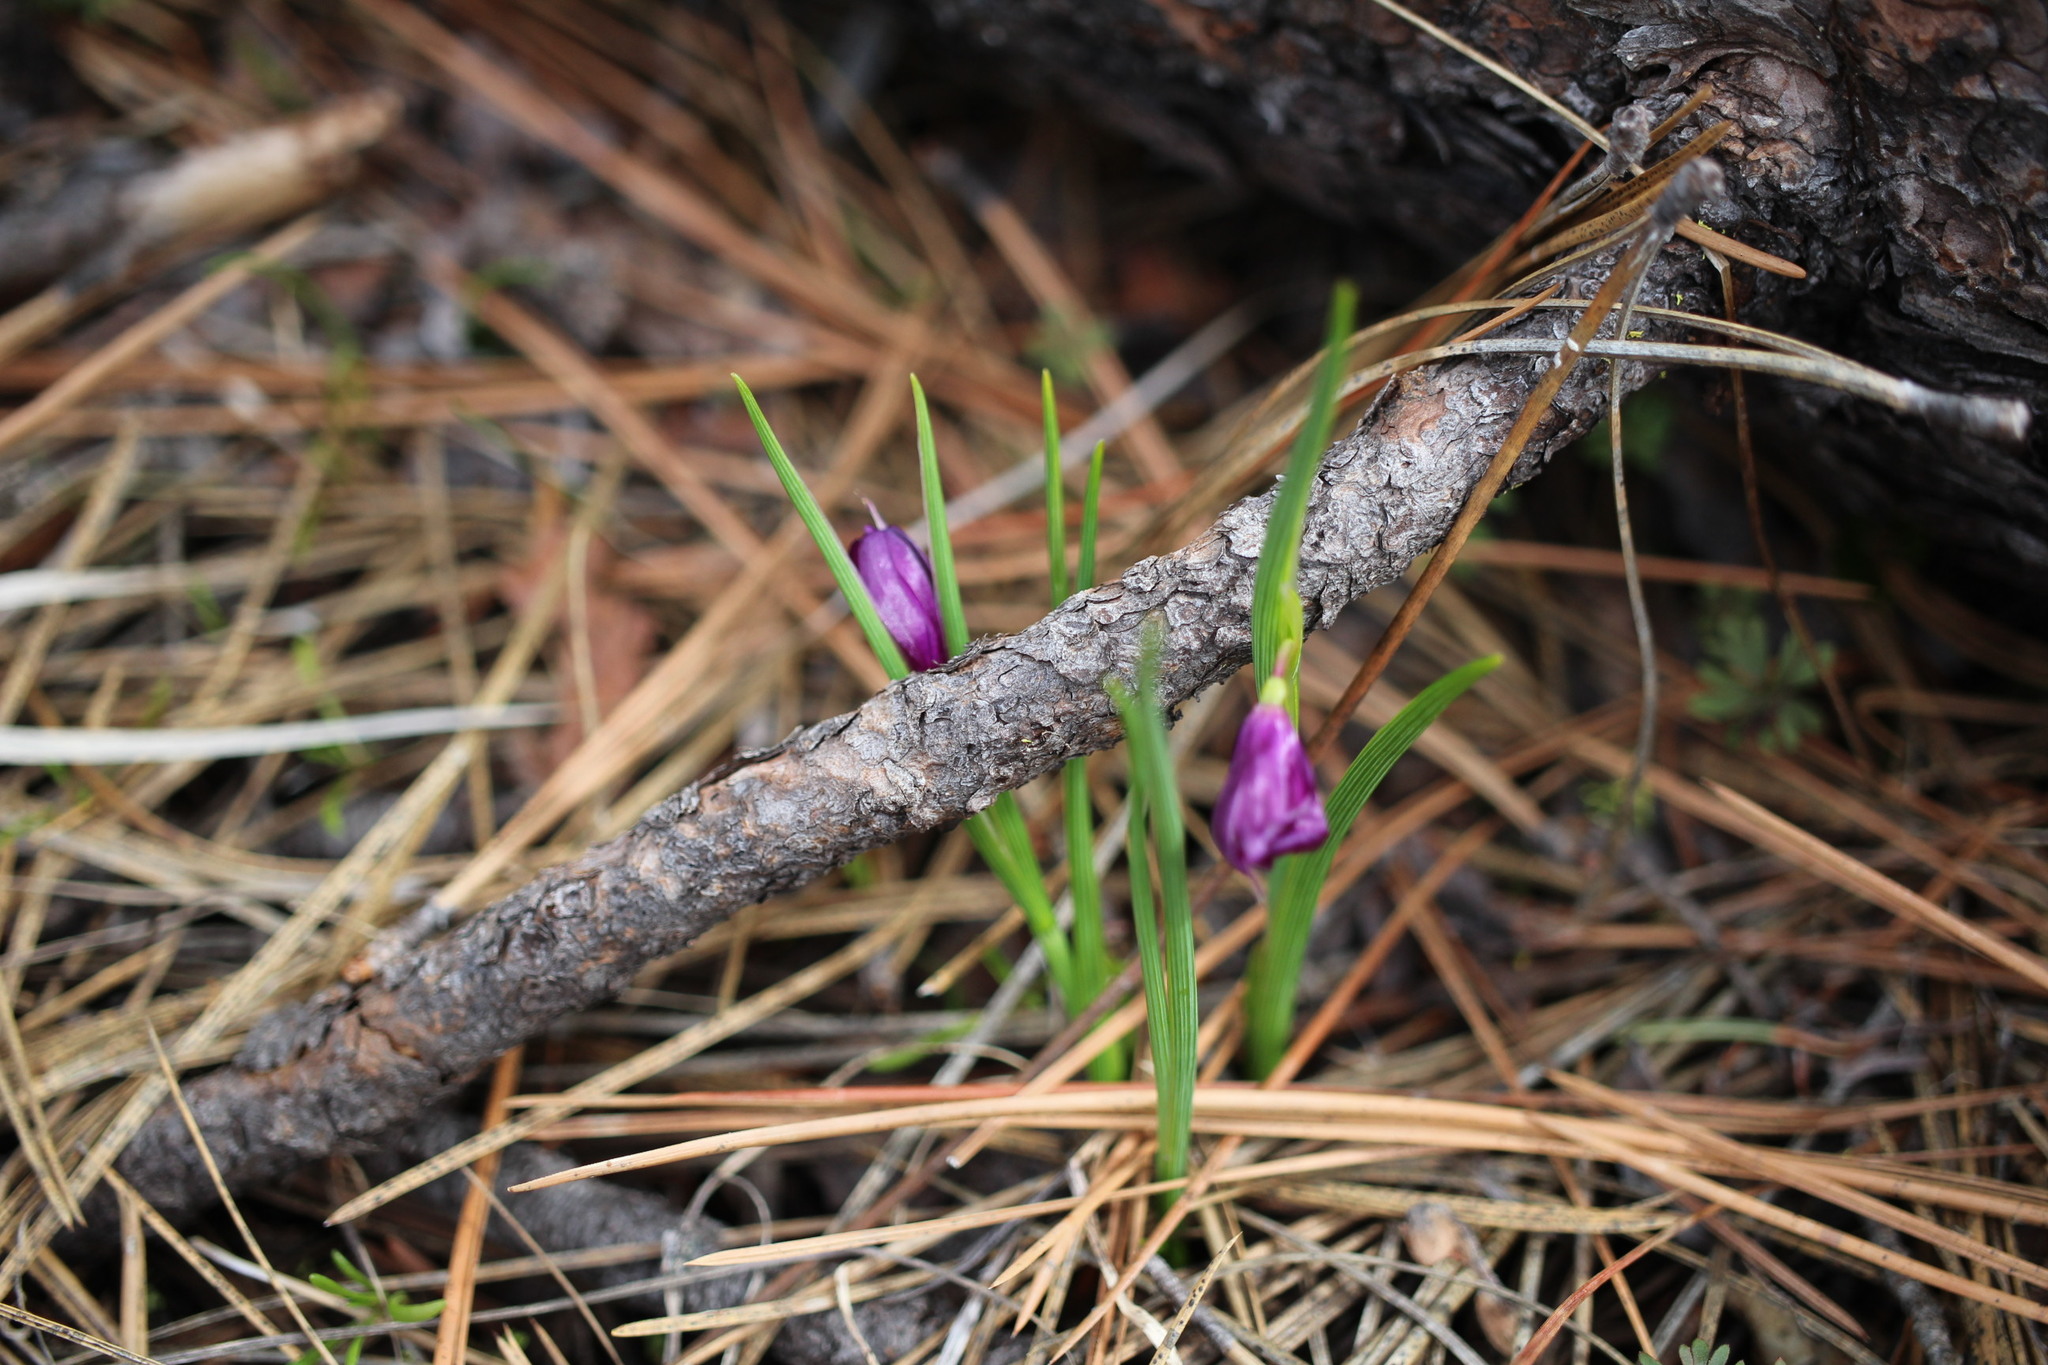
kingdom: Plantae
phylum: Tracheophyta
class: Liliopsida
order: Asparagales
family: Iridaceae
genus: Olsynium
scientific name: Olsynium douglasii
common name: Douglas' grasswidow
